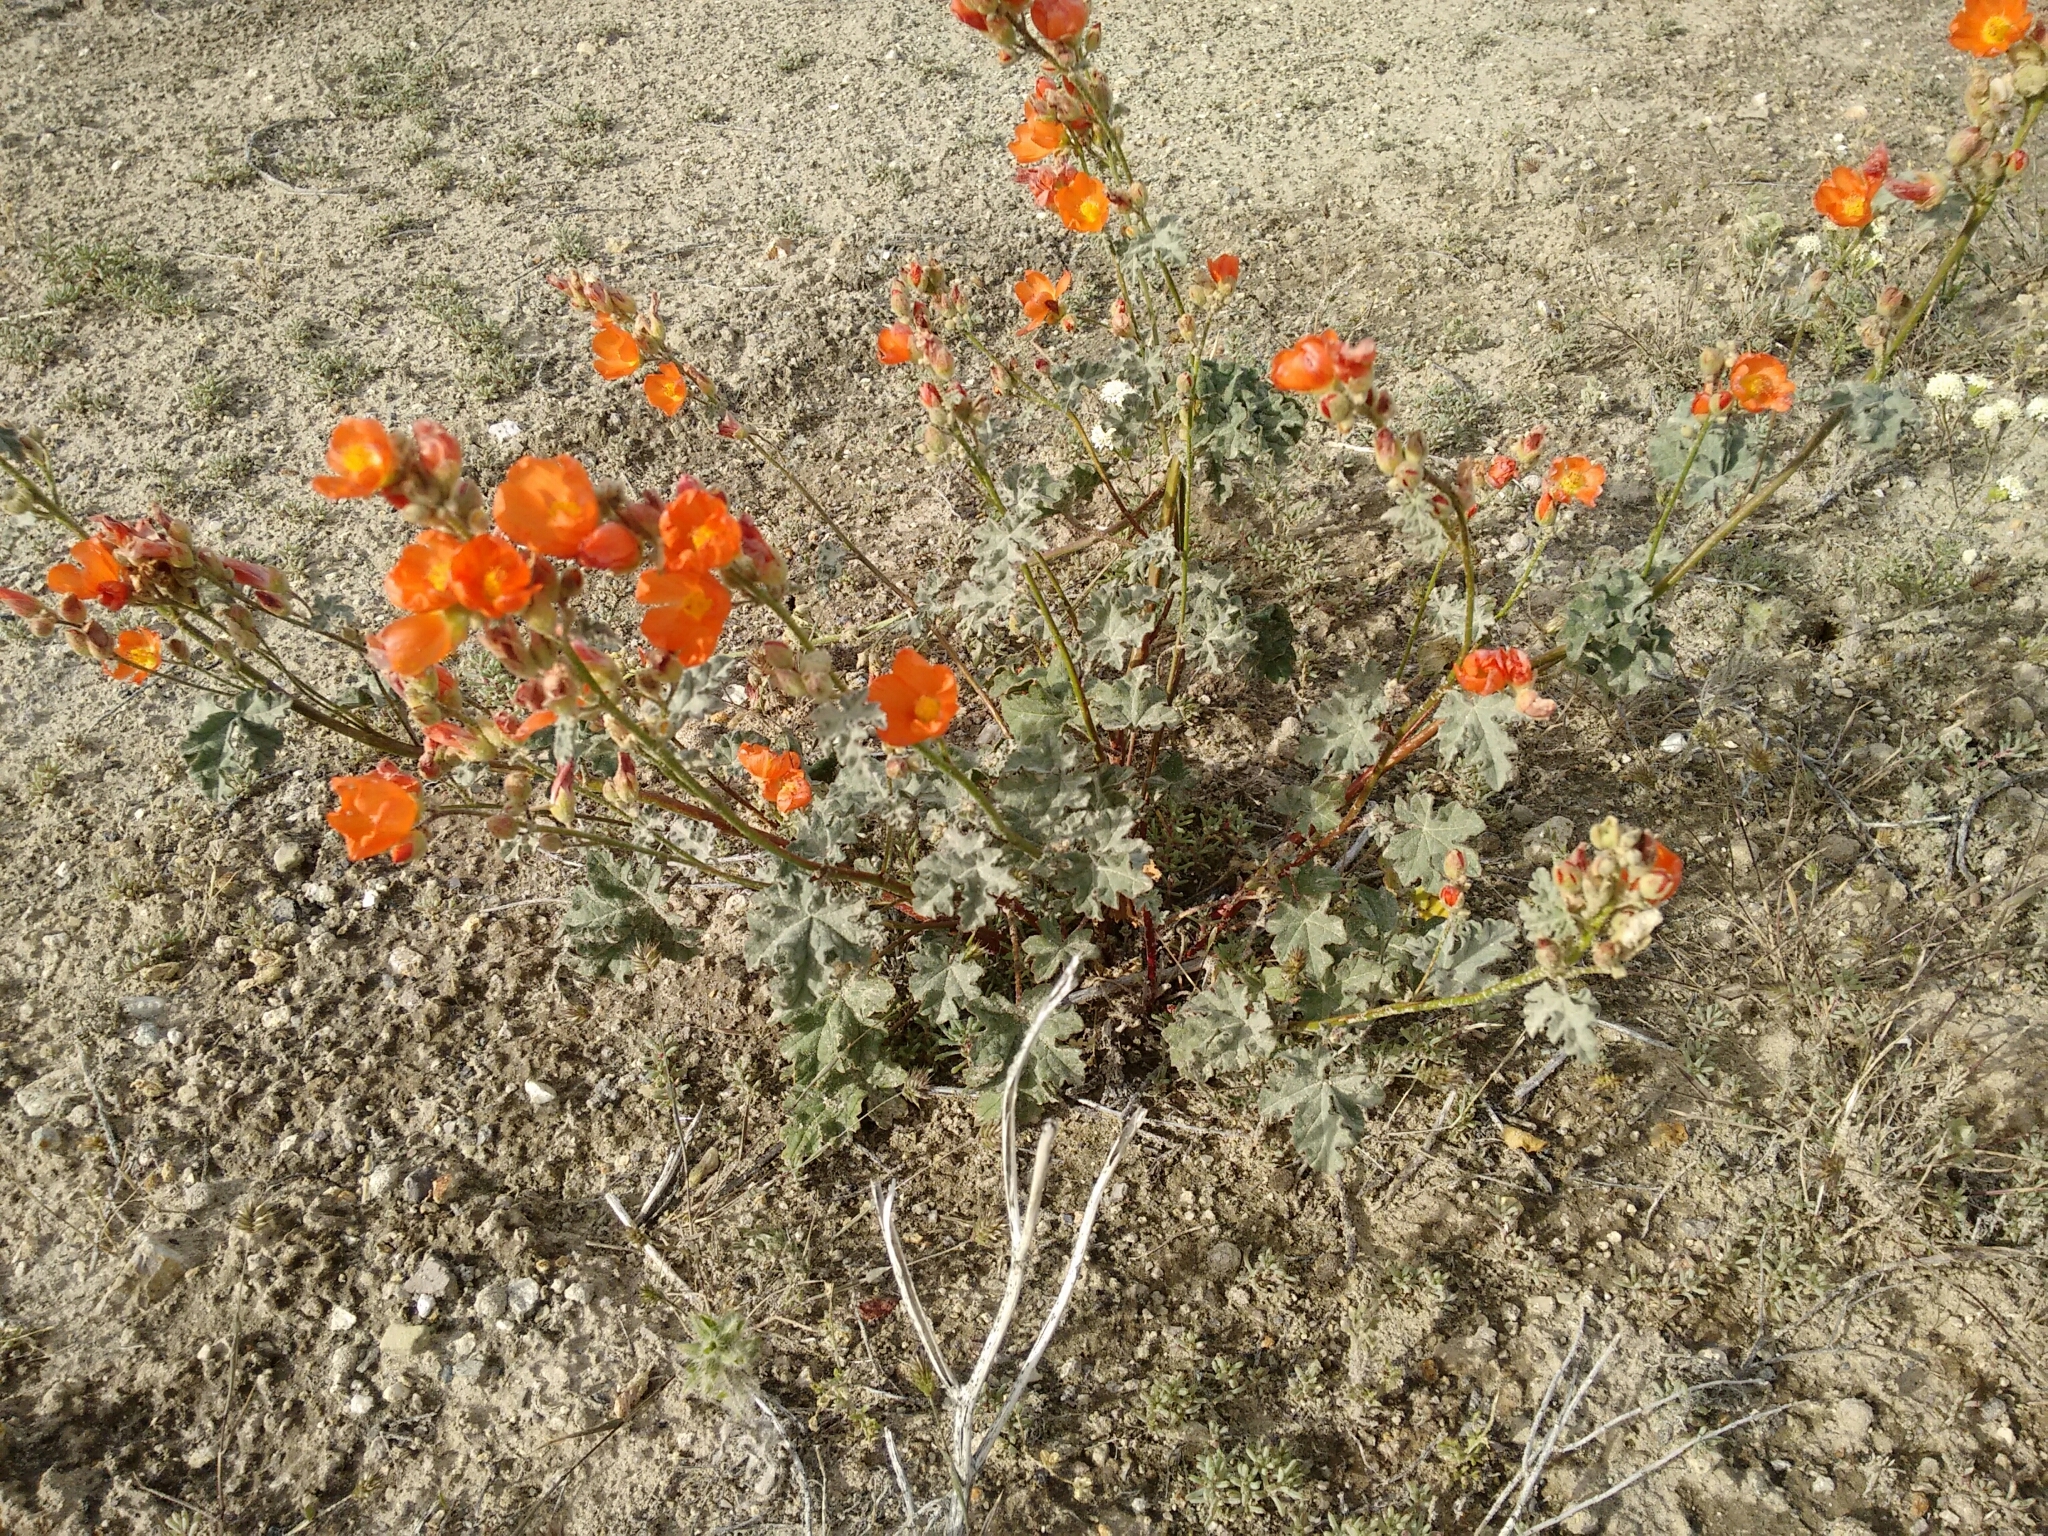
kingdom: Plantae
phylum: Tracheophyta
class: Magnoliopsida
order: Malvales
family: Malvaceae
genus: Sphaeralcea
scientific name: Sphaeralcea ambigua
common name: Apricot globe-mallow
